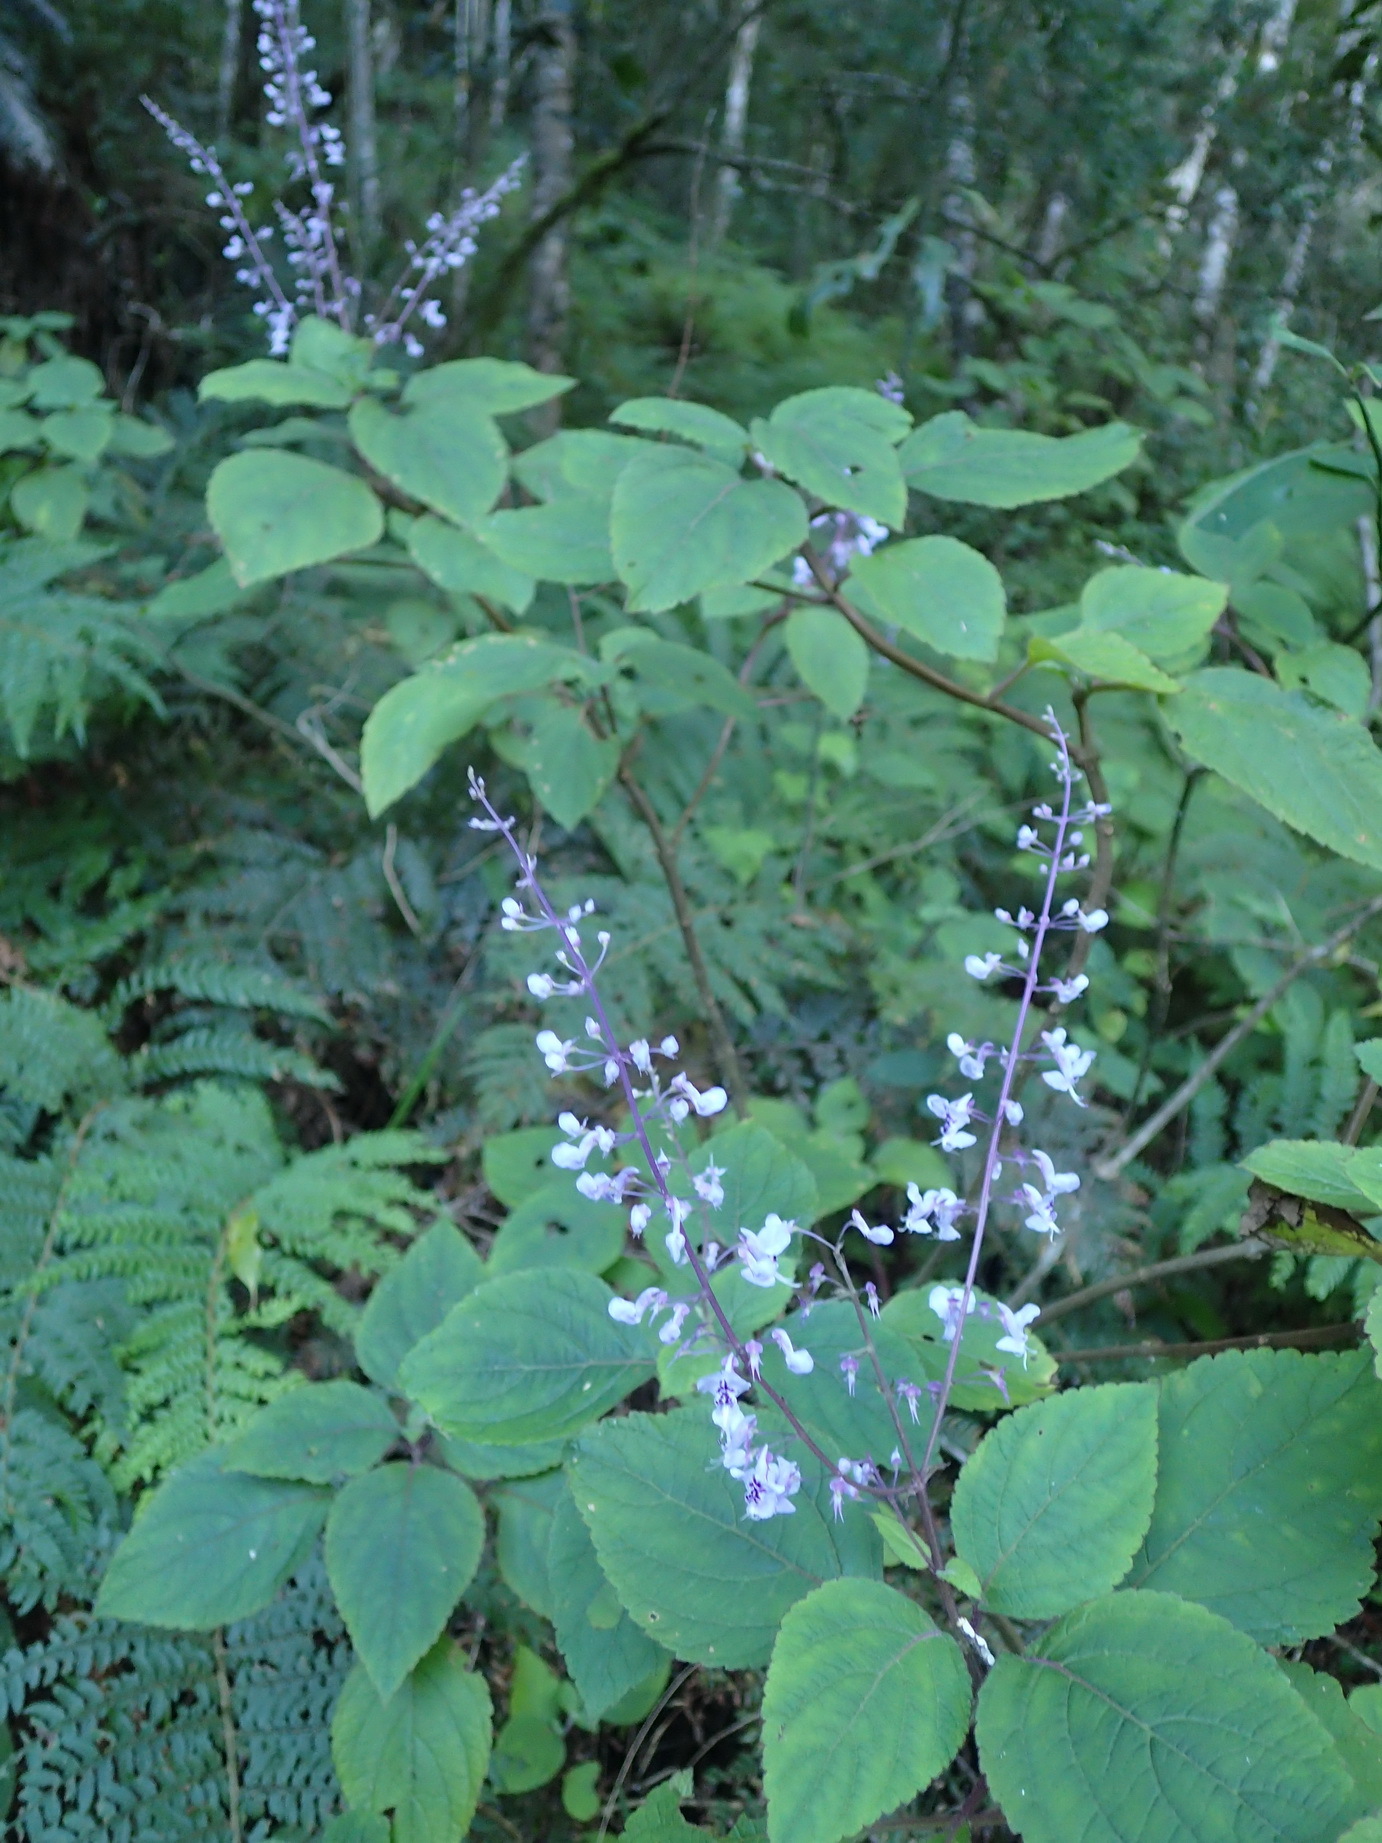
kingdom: Plantae
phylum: Tracheophyta
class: Magnoliopsida
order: Lamiales
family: Lamiaceae
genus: Plectranthus
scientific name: Plectranthus fruticosus
